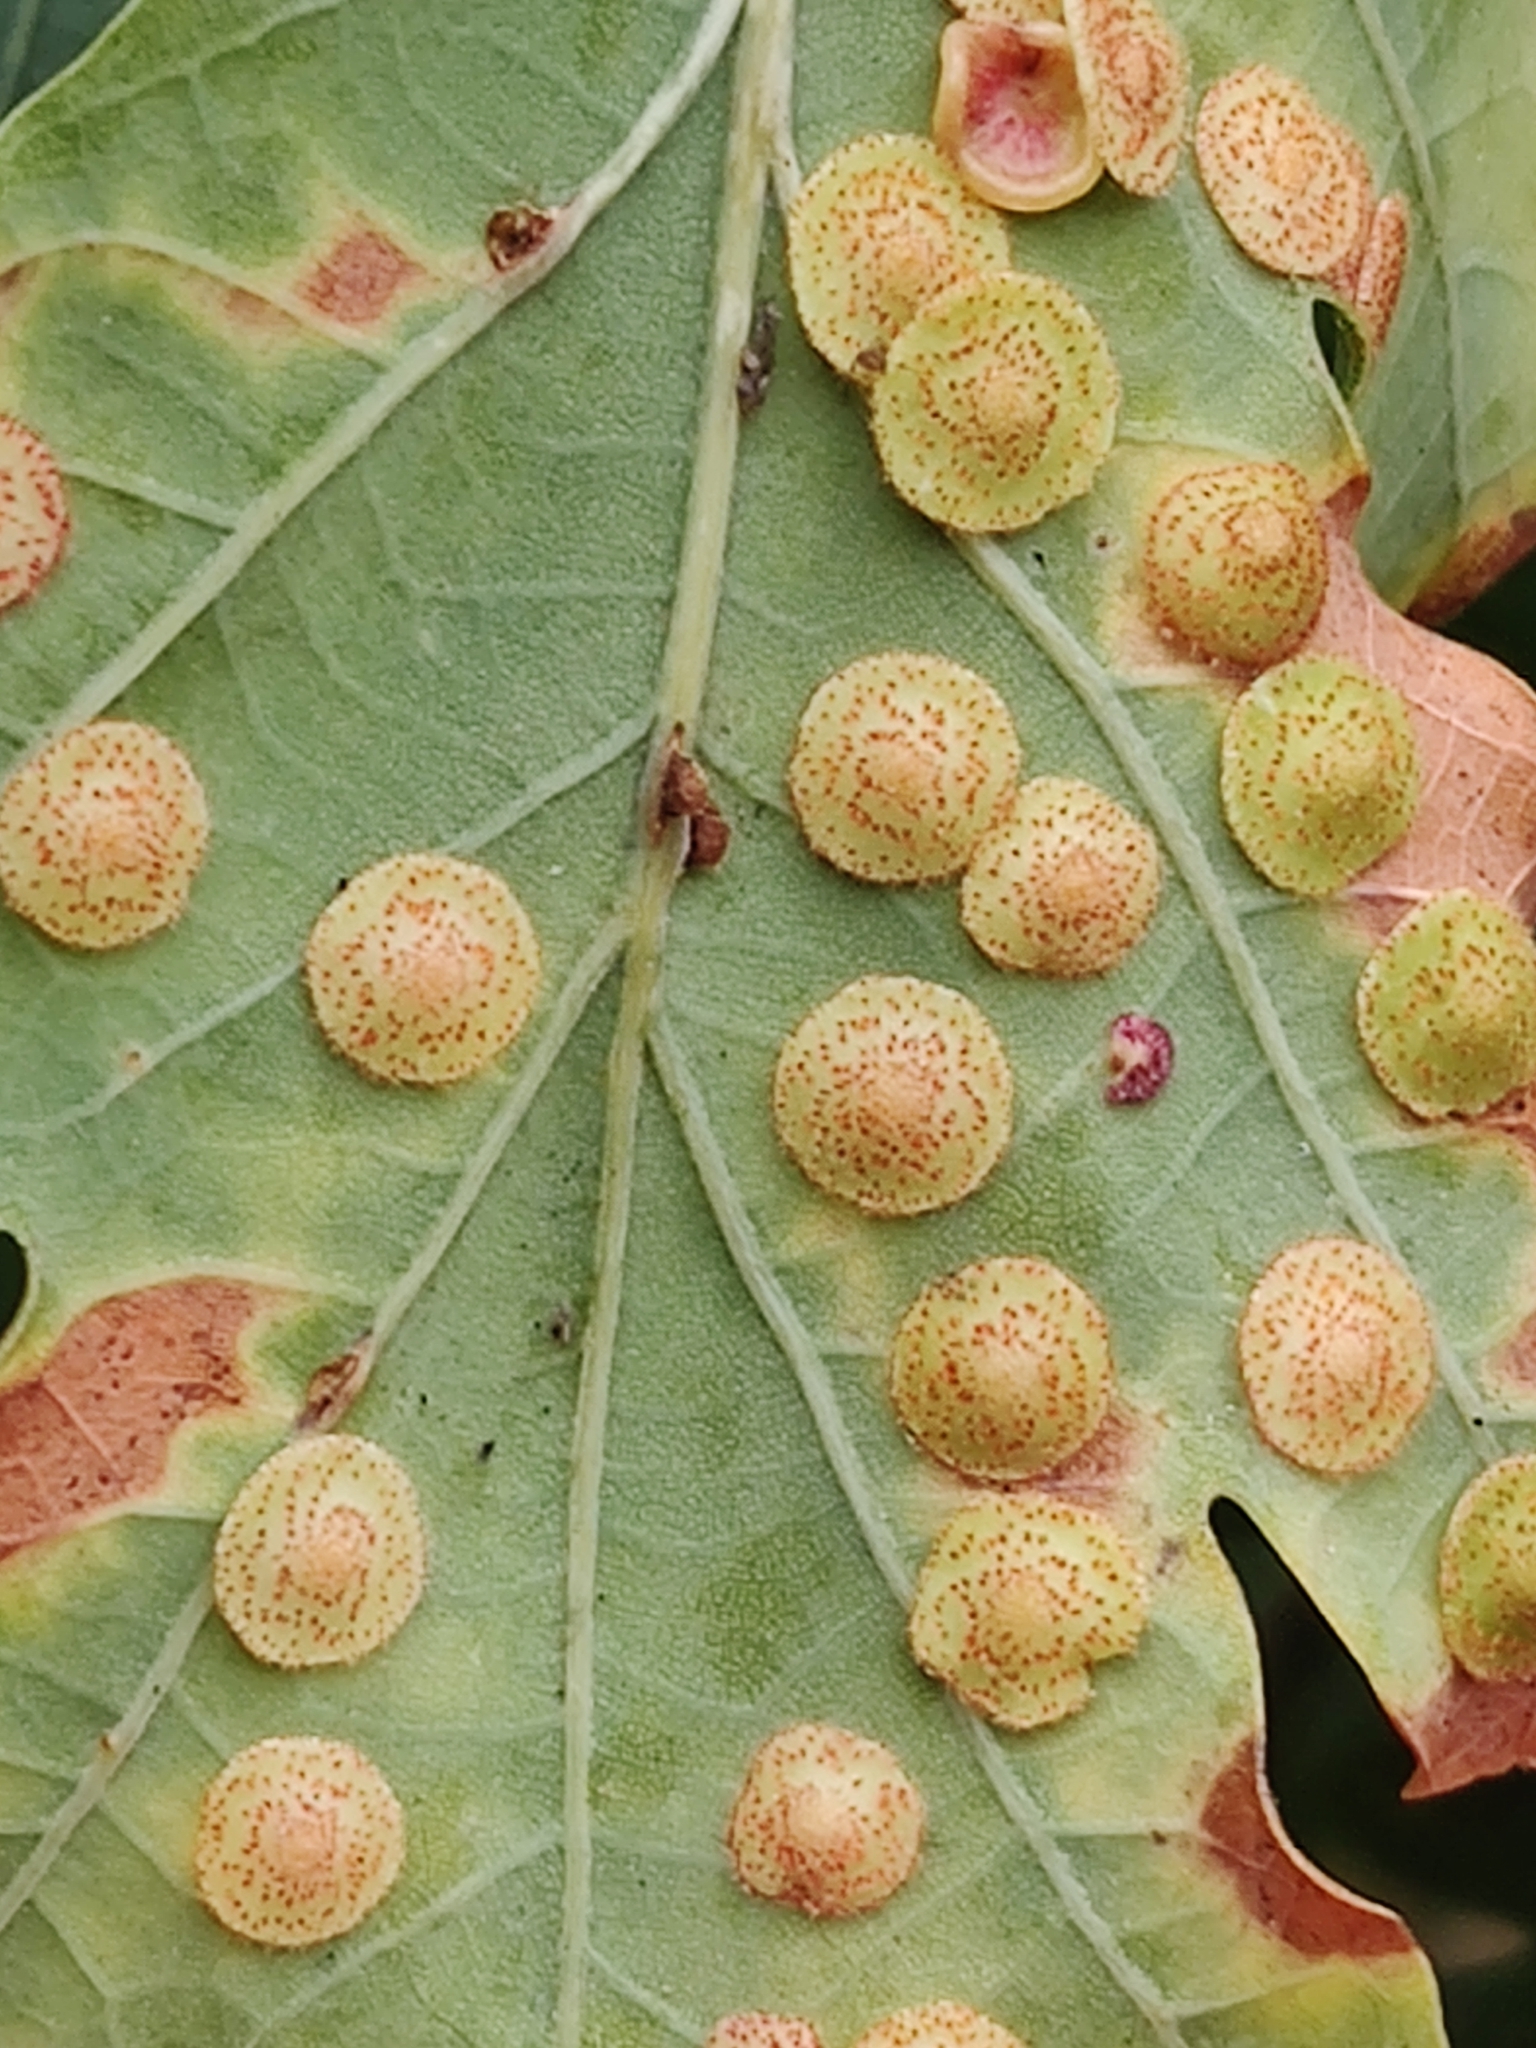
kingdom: Animalia
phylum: Arthropoda
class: Insecta
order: Hymenoptera
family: Cynipidae
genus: Neuroterus
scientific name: Neuroterus quercusbaccarum
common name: Common spangle gall
